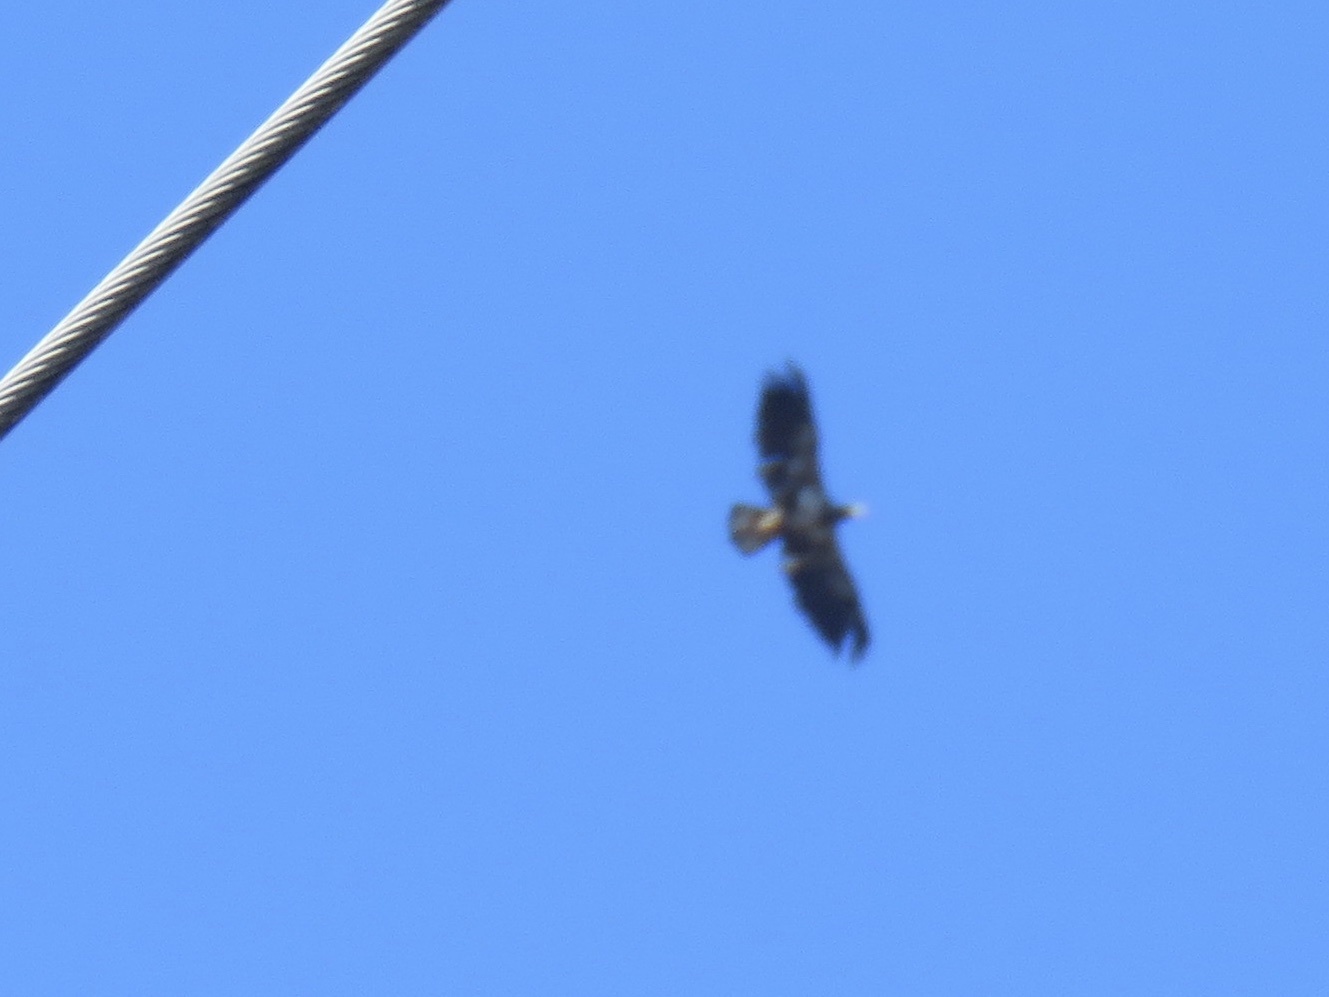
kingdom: Animalia
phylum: Chordata
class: Aves
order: Accipitriformes
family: Accipitridae
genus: Haliaeetus
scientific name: Haliaeetus leucocephalus
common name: Bald eagle
